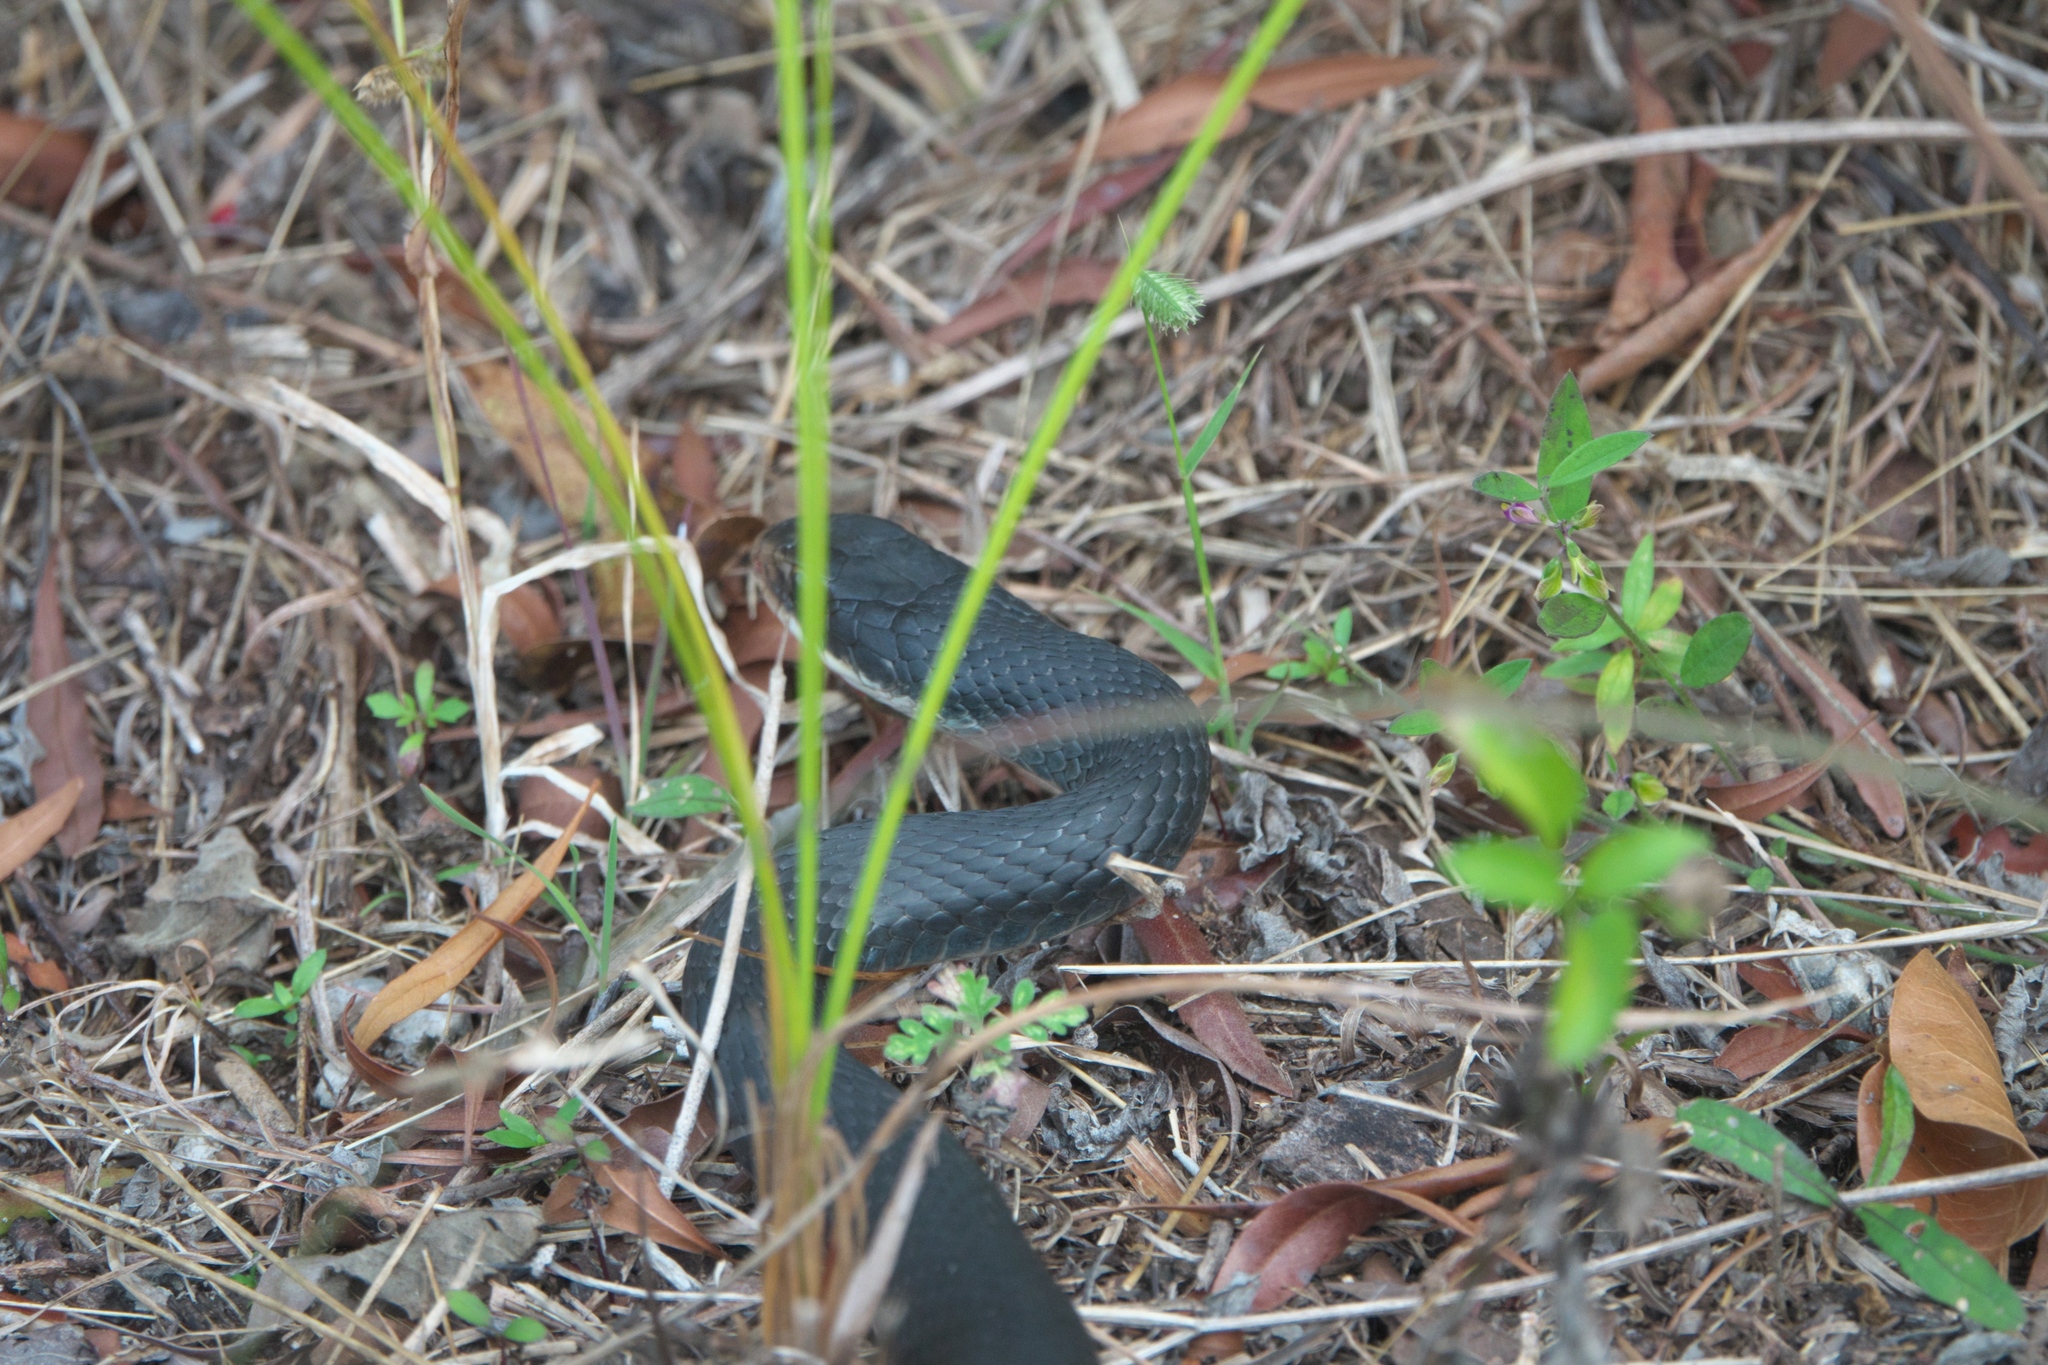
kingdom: Animalia
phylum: Chordata
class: Squamata
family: Colubridae
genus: Coluber
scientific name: Coluber constrictor
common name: Eastern racer
